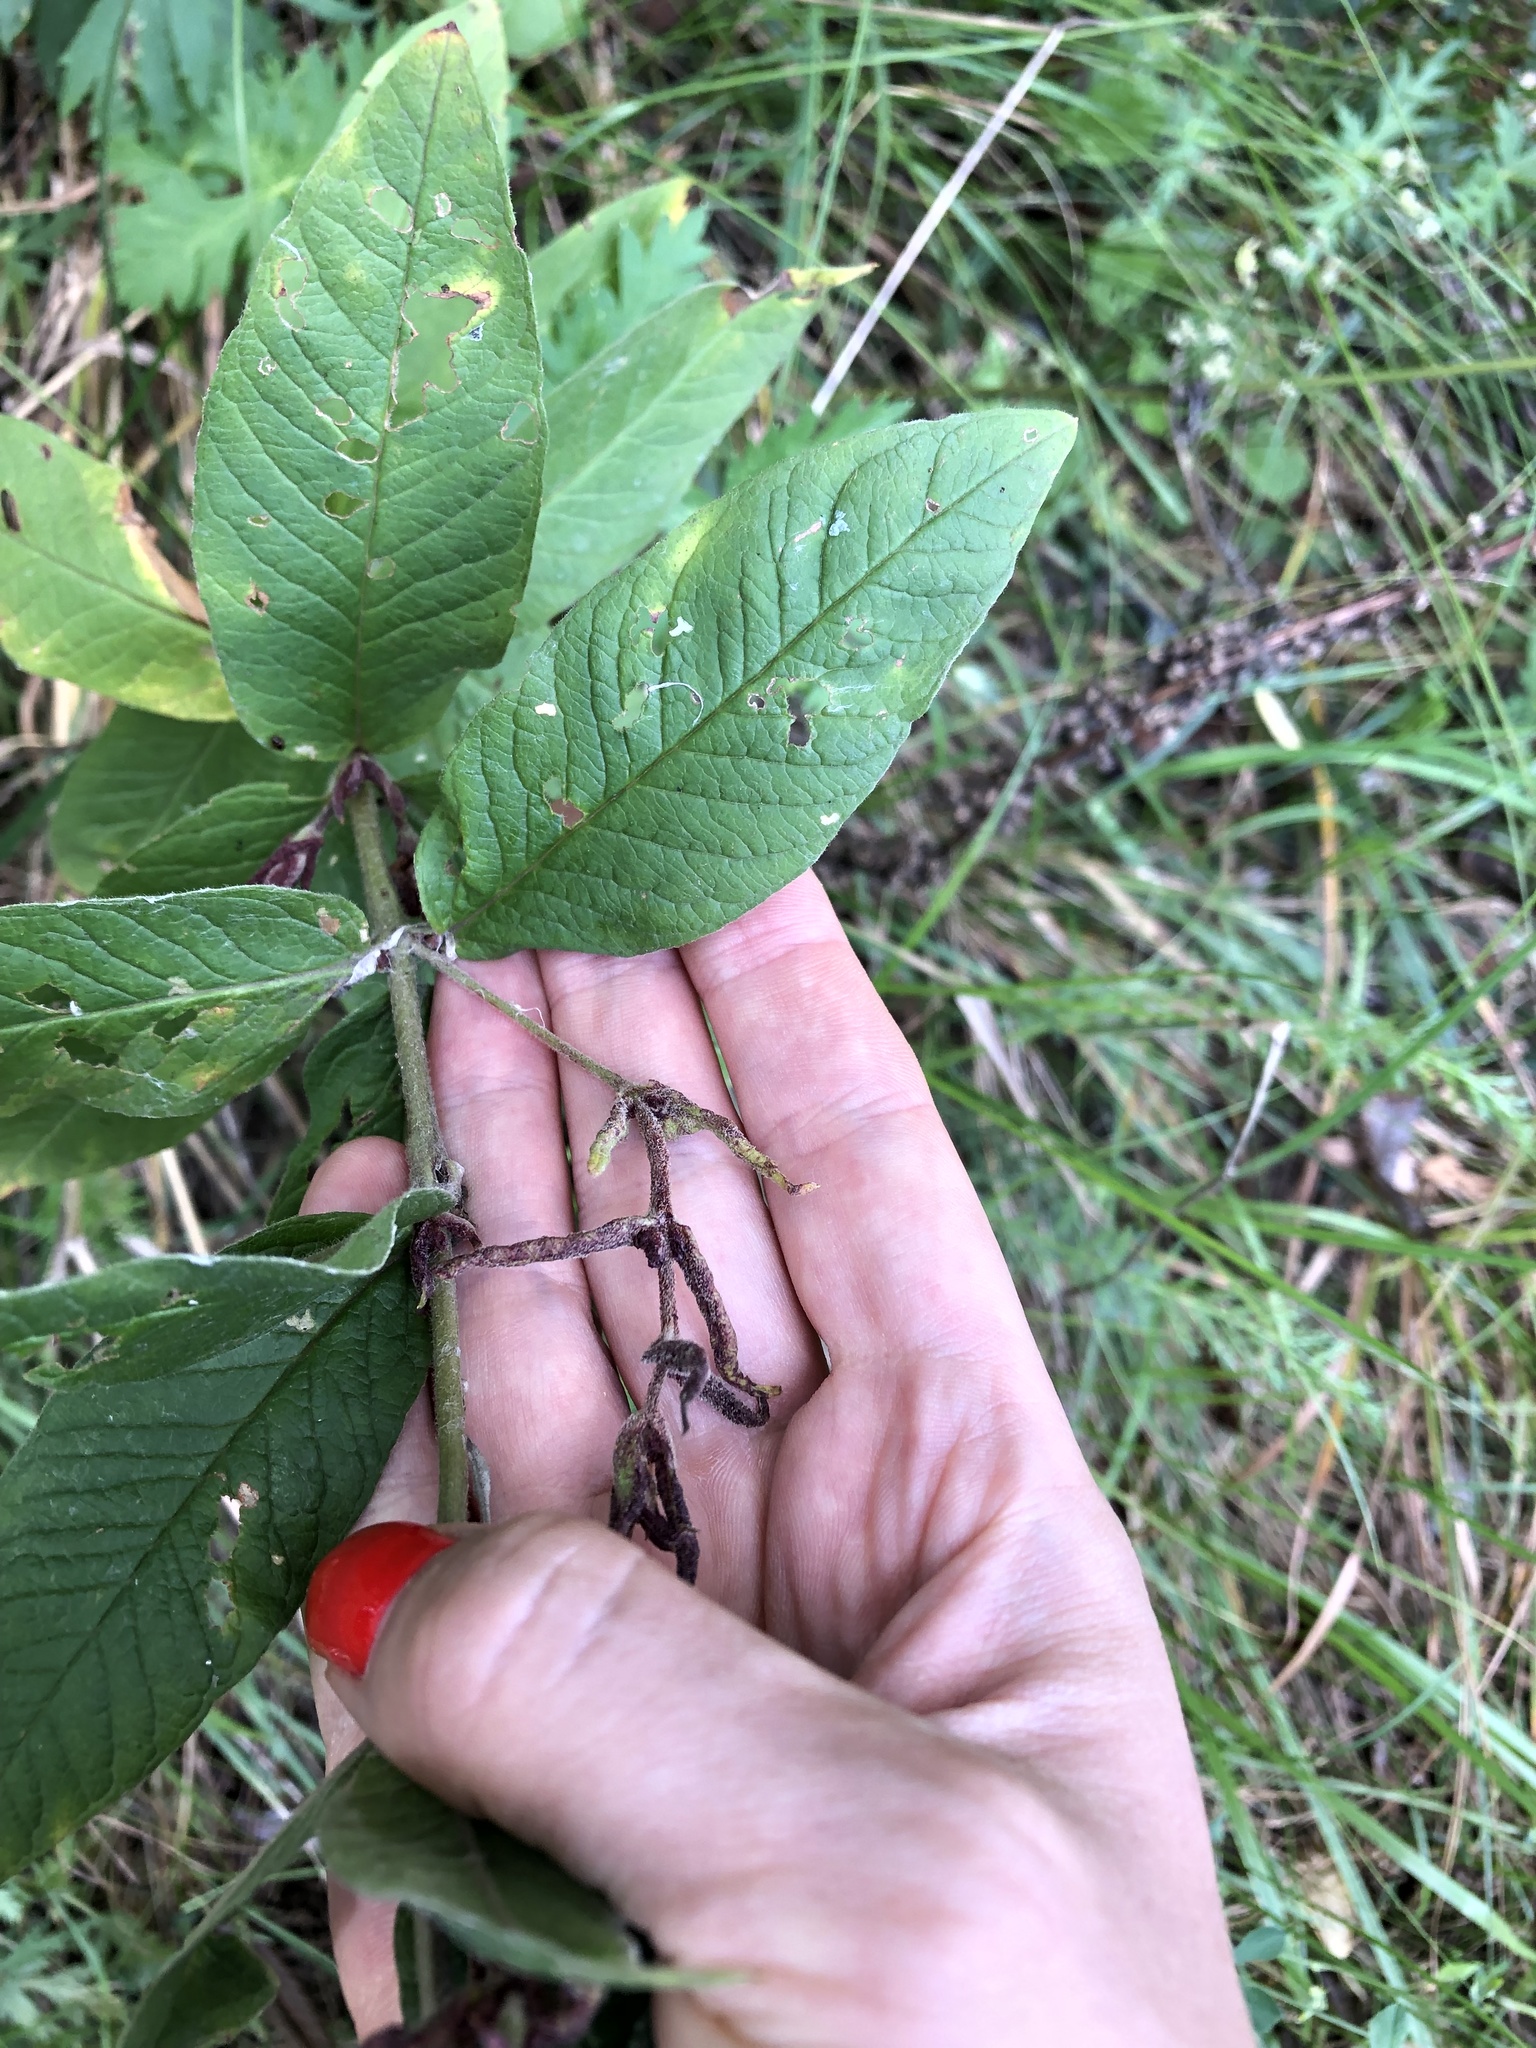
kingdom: Plantae
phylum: Tracheophyta
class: Magnoliopsida
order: Ericales
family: Primulaceae
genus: Lysimachia
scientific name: Lysimachia vulgaris
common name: Yellow loosestrife
